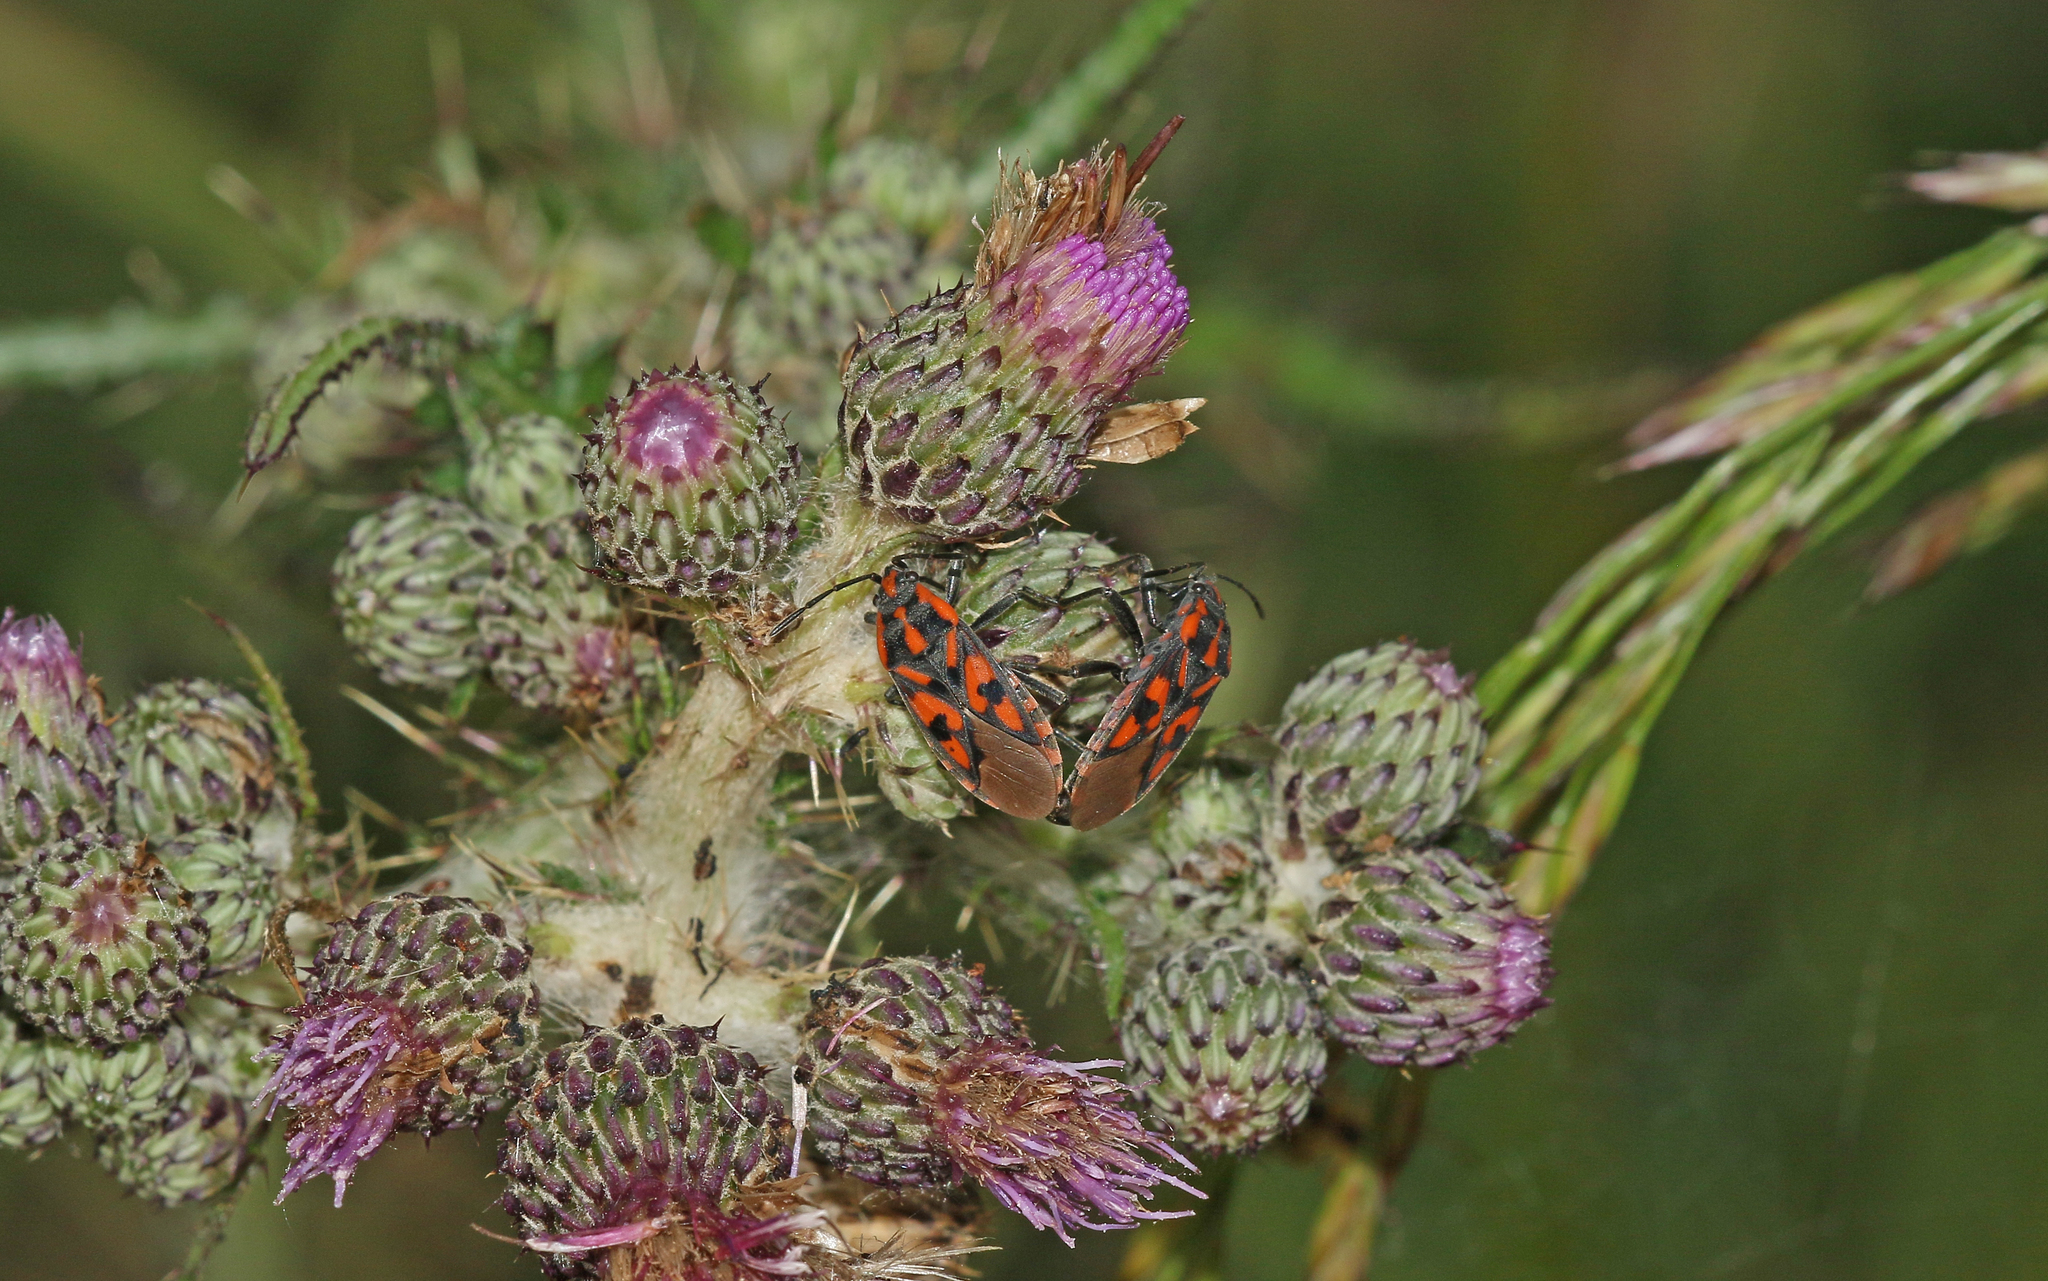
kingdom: Animalia
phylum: Arthropoda
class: Insecta
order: Hemiptera
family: Lygaeidae
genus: Spilostethus
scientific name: Spilostethus saxatilis
